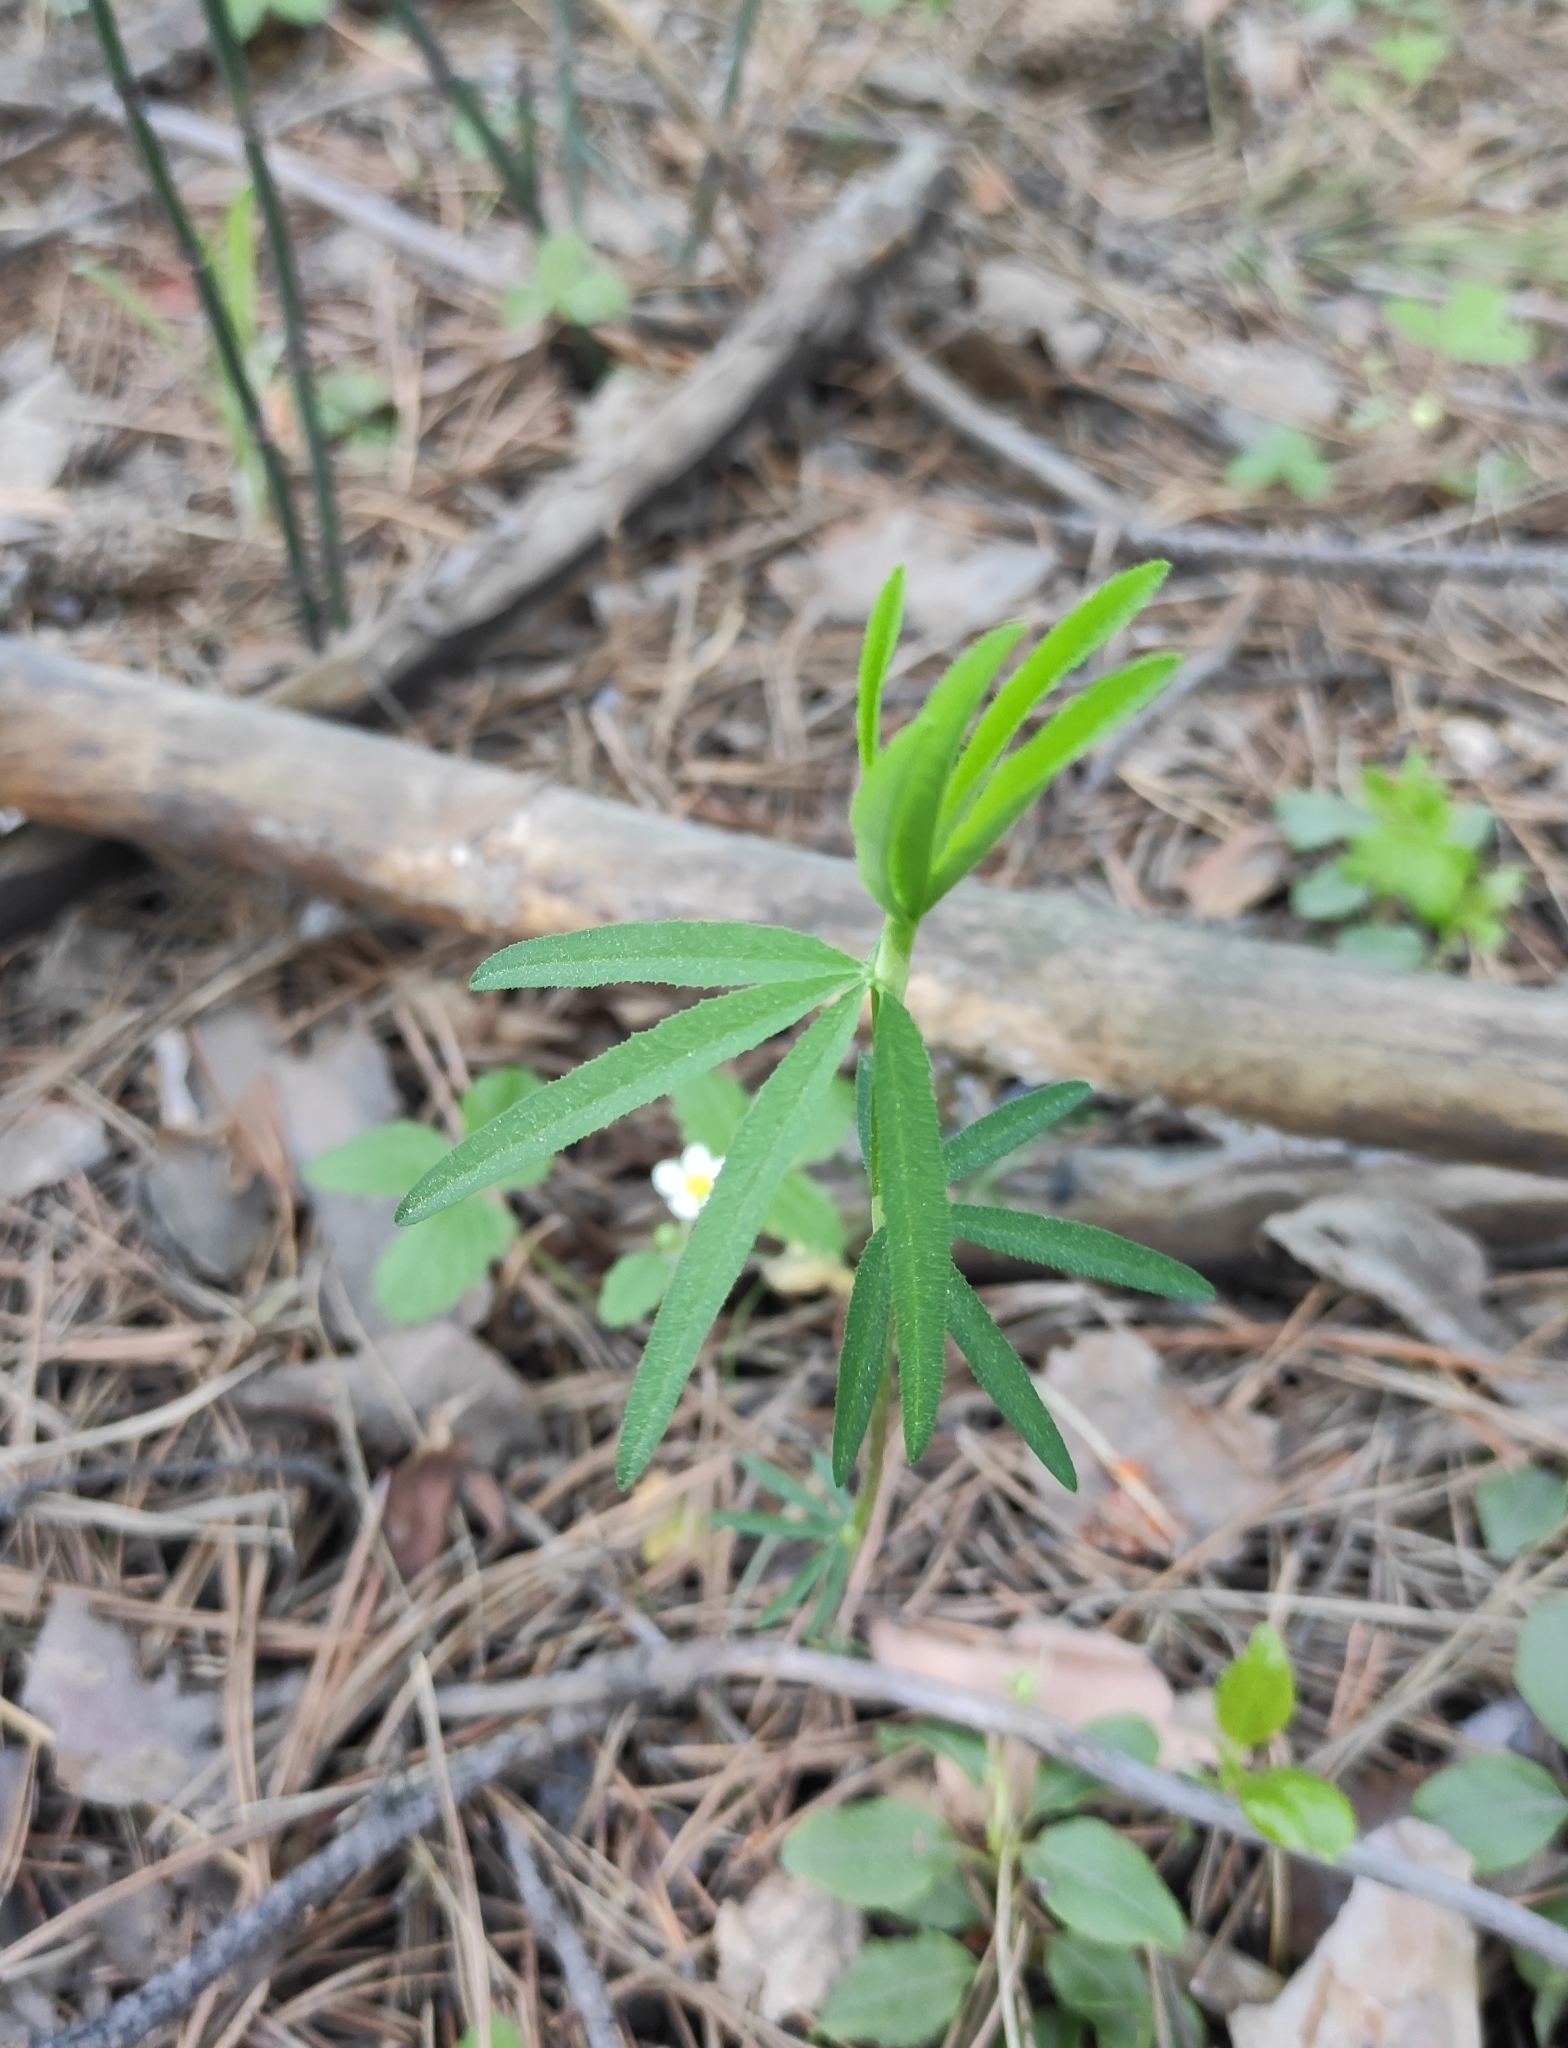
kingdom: Plantae
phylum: Tracheophyta
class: Magnoliopsida
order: Fabales
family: Fabaceae
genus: Trifolium
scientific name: Trifolium lupinaster
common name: Lupine clover
